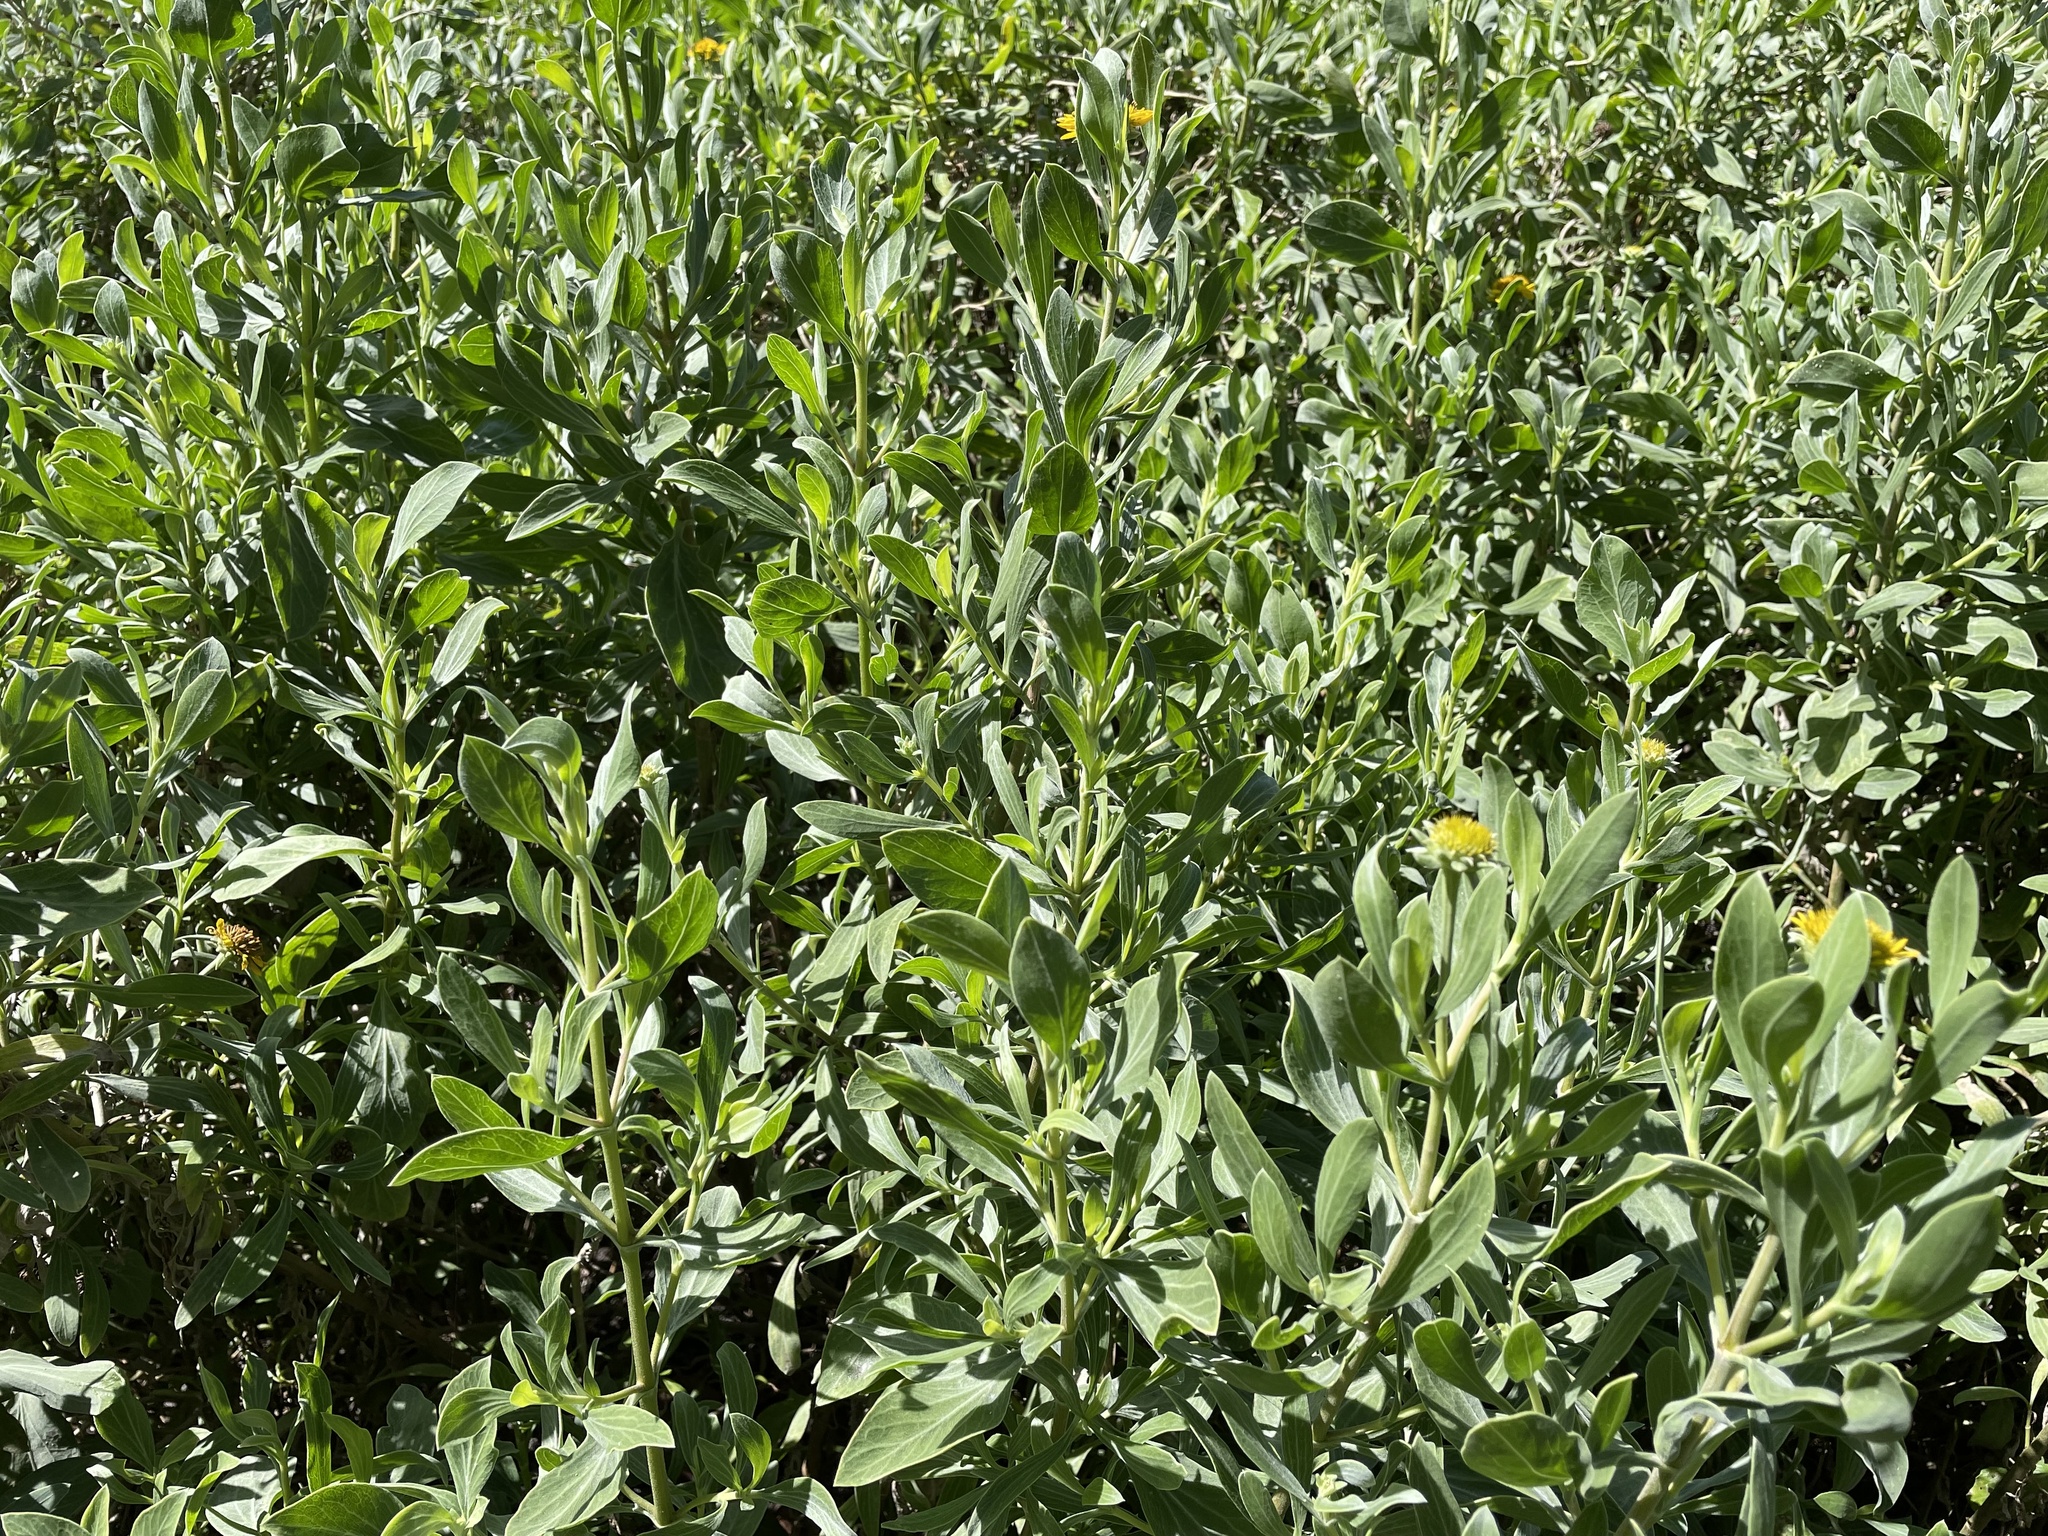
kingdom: Plantae
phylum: Tracheophyta
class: Magnoliopsida
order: Asterales
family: Asteraceae
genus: Borrichia
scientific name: Borrichia frutescens
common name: Sea oxeye
